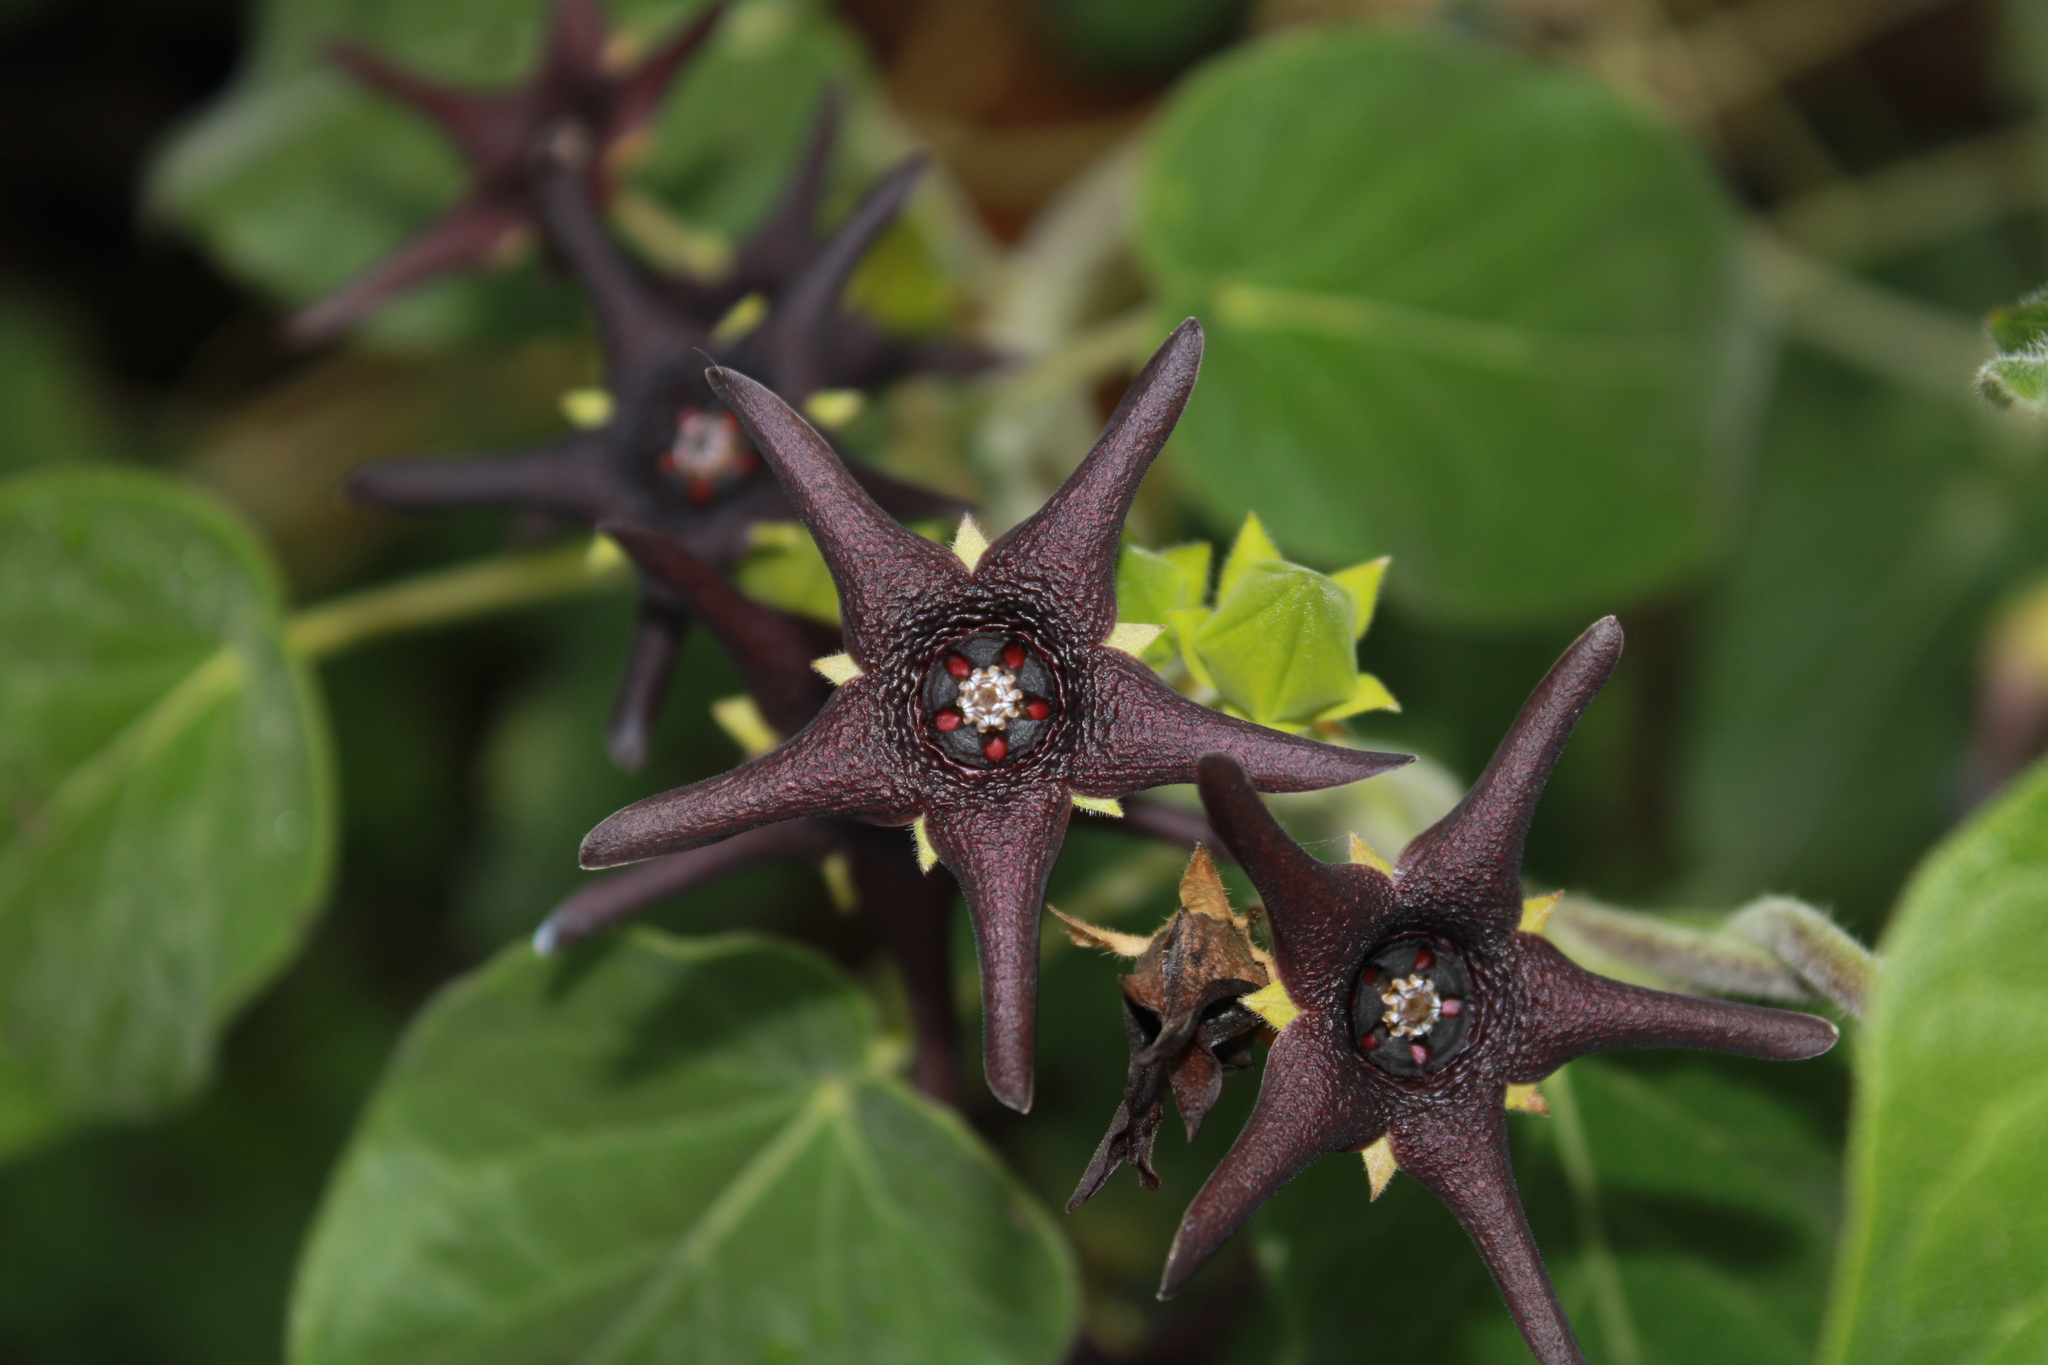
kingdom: Plantae
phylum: Tracheophyta
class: Magnoliopsida
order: Gentianales
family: Apocynaceae
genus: Matelea
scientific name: Matelea pilosa
